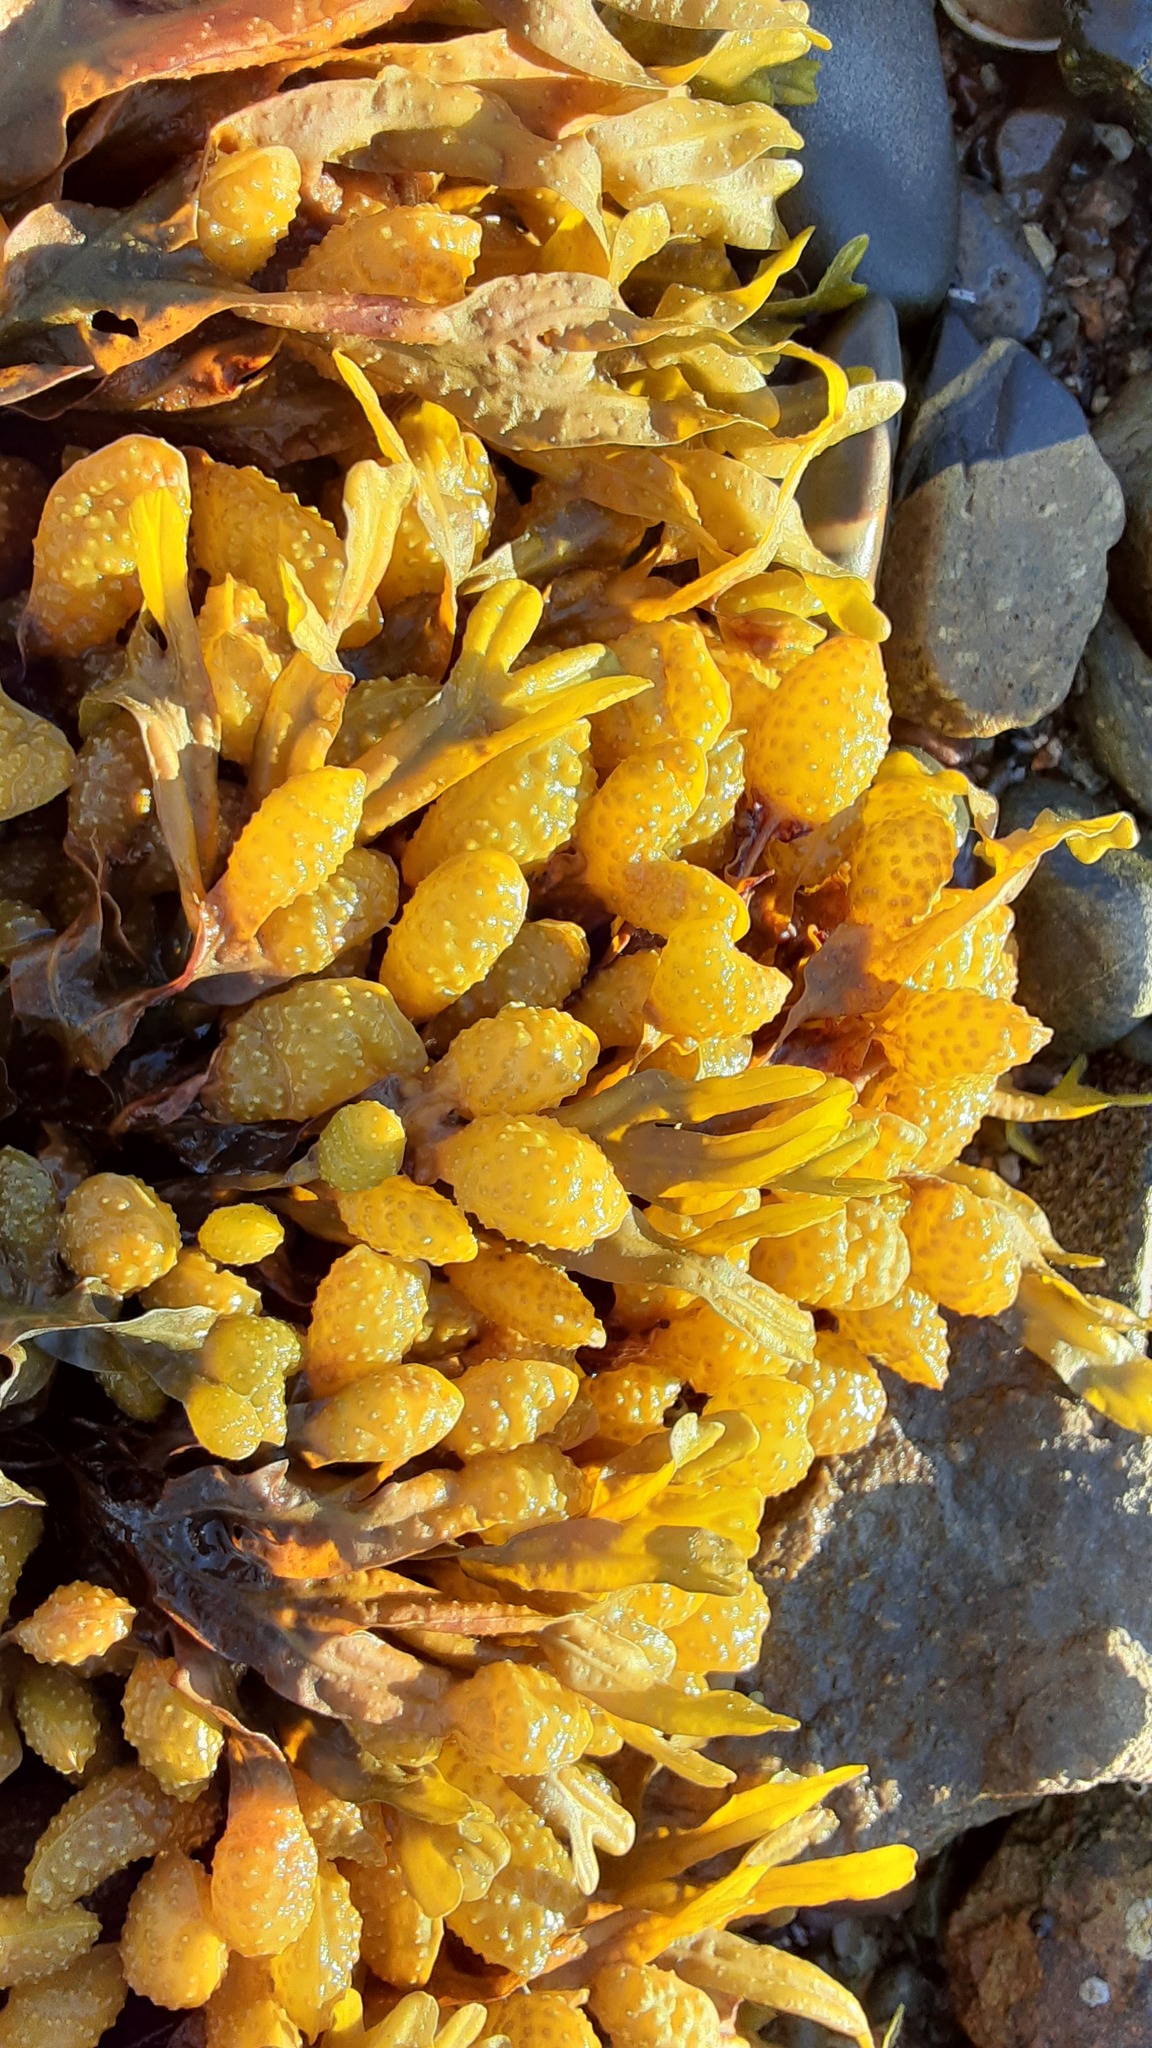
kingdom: Chromista
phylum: Ochrophyta
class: Phaeophyceae
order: Fucales
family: Fucaceae
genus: Fucus
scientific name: Fucus spiralis
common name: Spiral wrack
